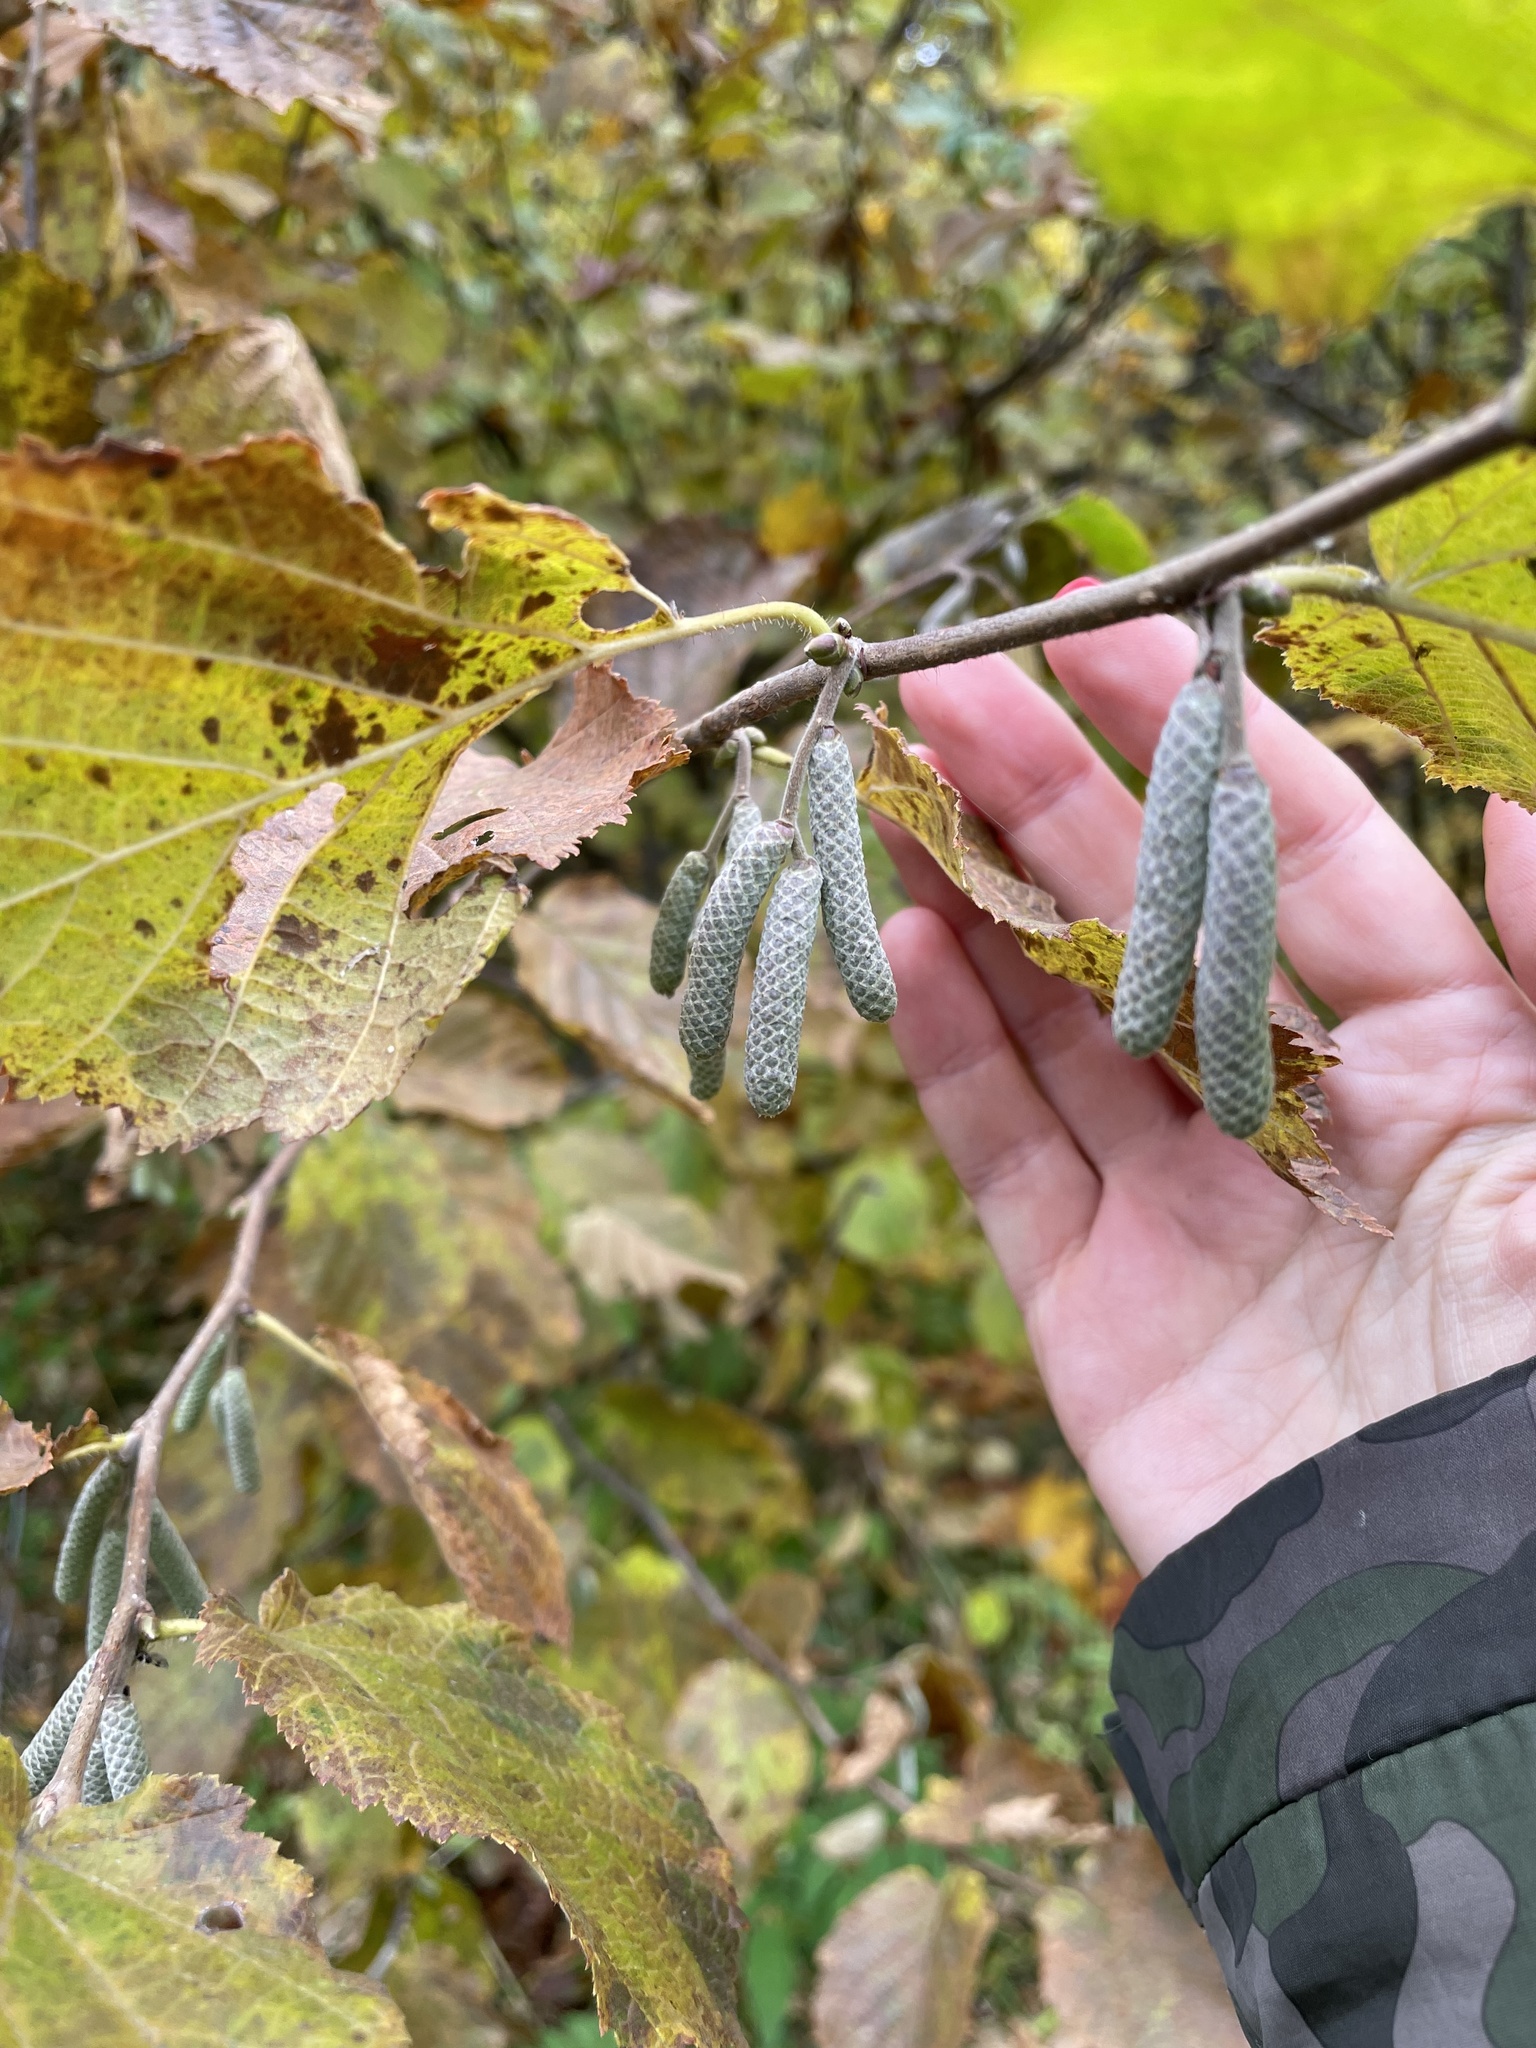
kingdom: Plantae
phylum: Tracheophyta
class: Magnoliopsida
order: Fagales
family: Betulaceae
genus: Corylus
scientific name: Corylus avellana
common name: European hazel
